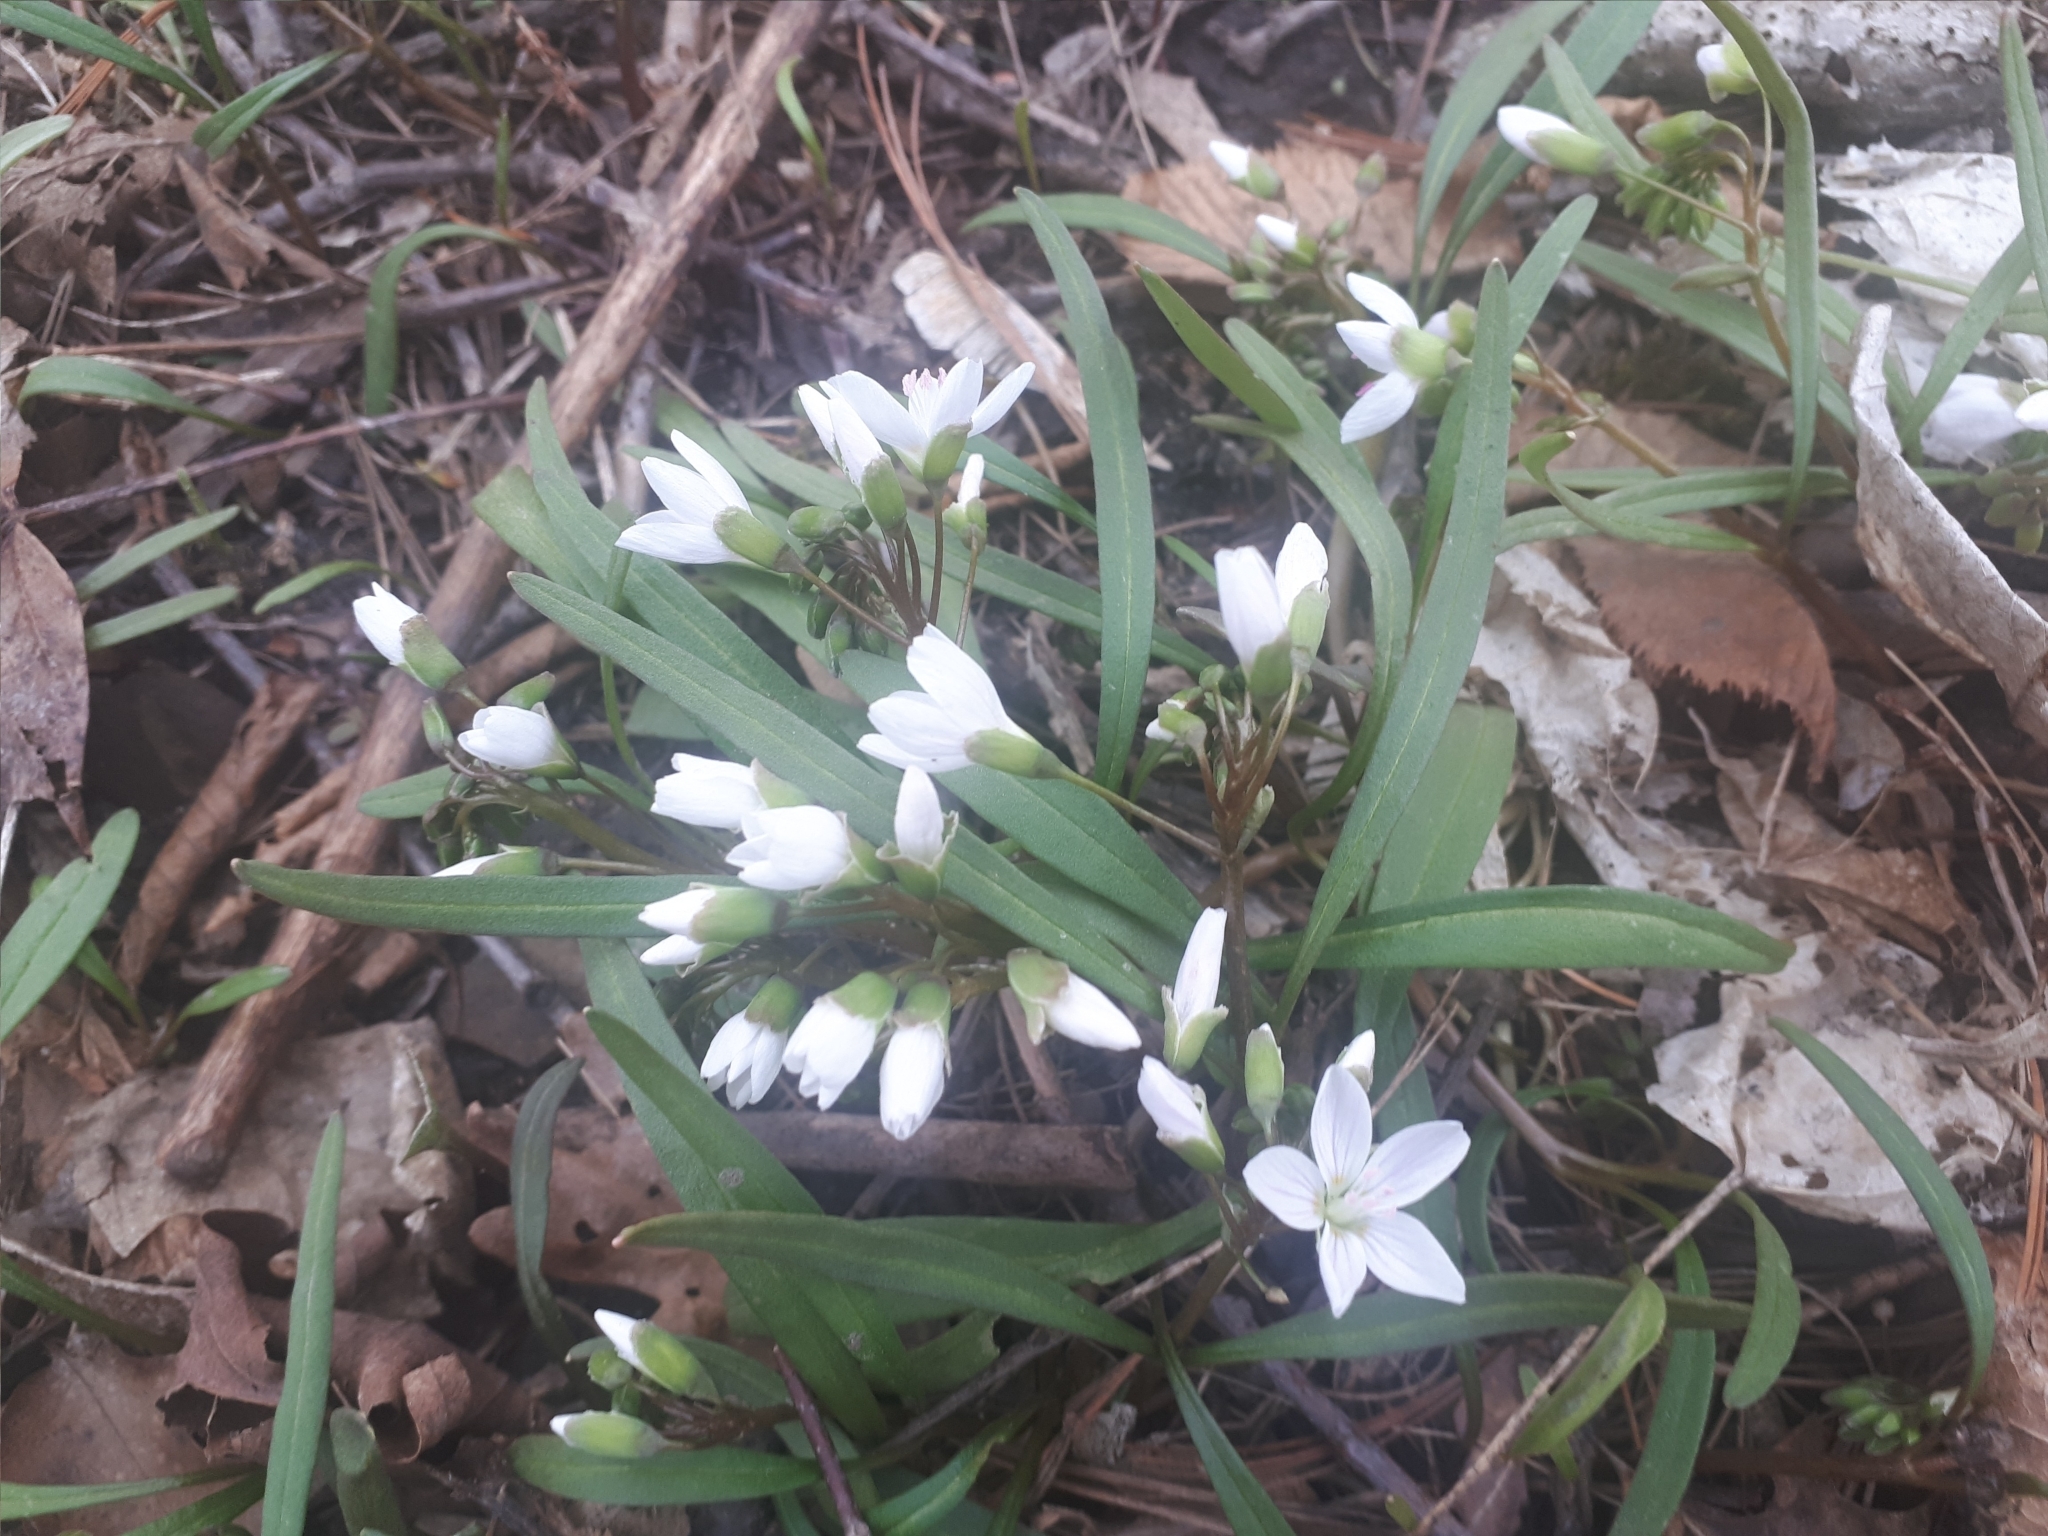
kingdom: Plantae
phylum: Tracheophyta
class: Magnoliopsida
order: Caryophyllales
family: Montiaceae
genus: Claytonia
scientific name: Claytonia virginica
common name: Virginia springbeauty
